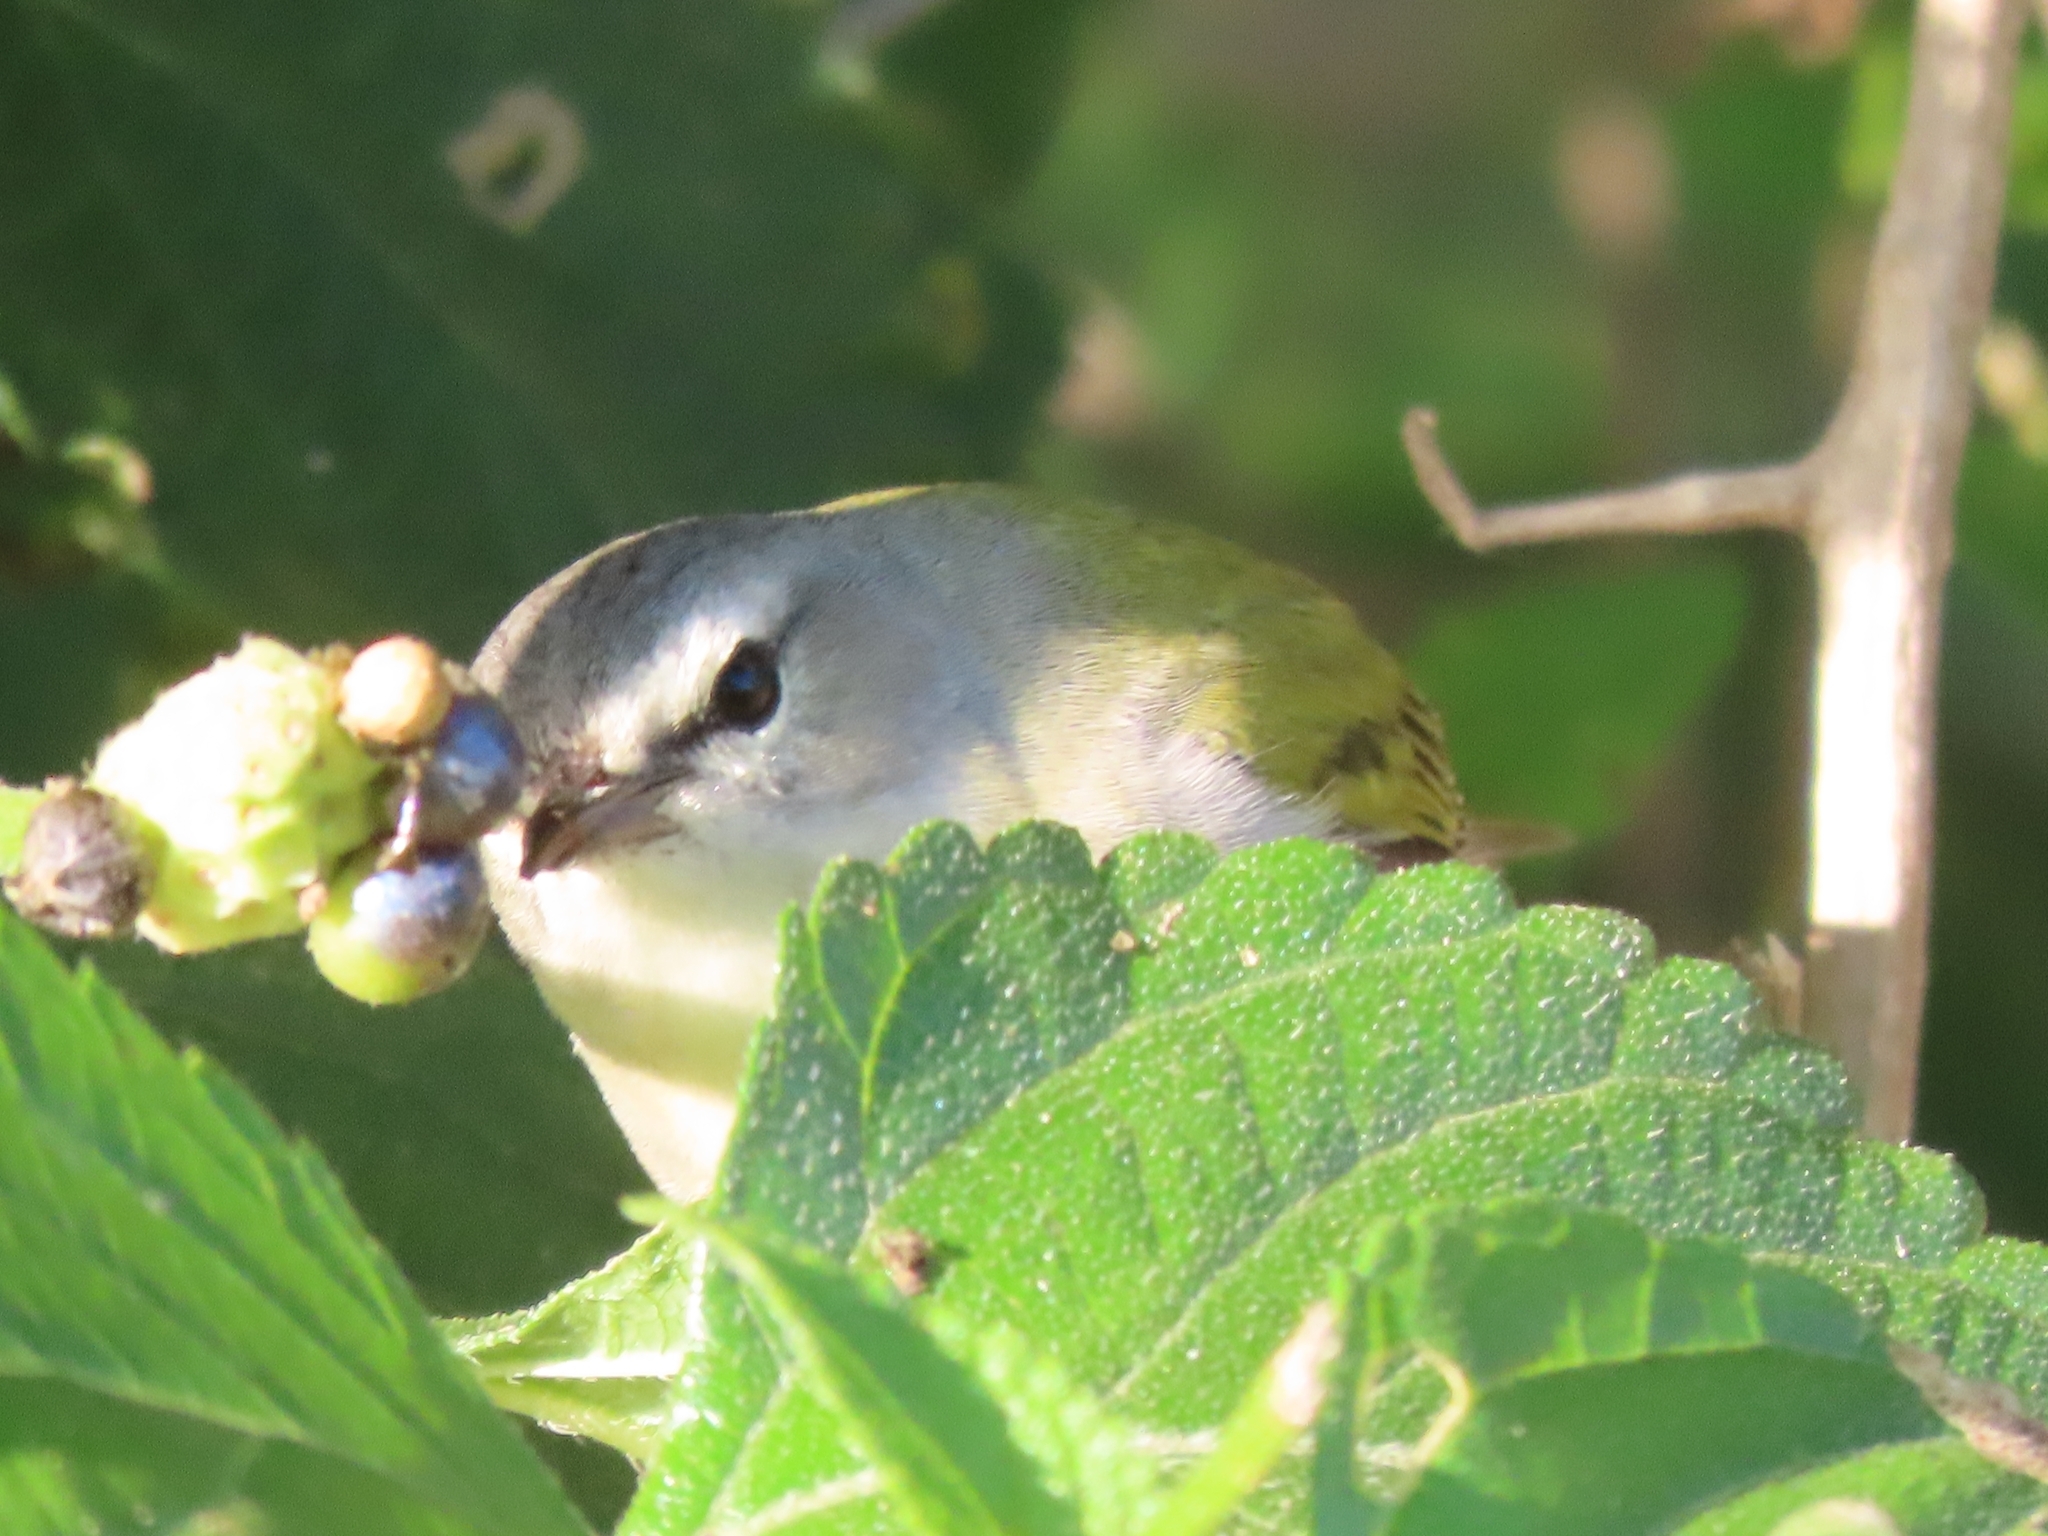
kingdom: Animalia
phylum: Chordata
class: Aves
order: Passeriformes
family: Parulidae
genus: Leiothlypis
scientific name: Leiothlypis peregrina
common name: Tennessee warbler
